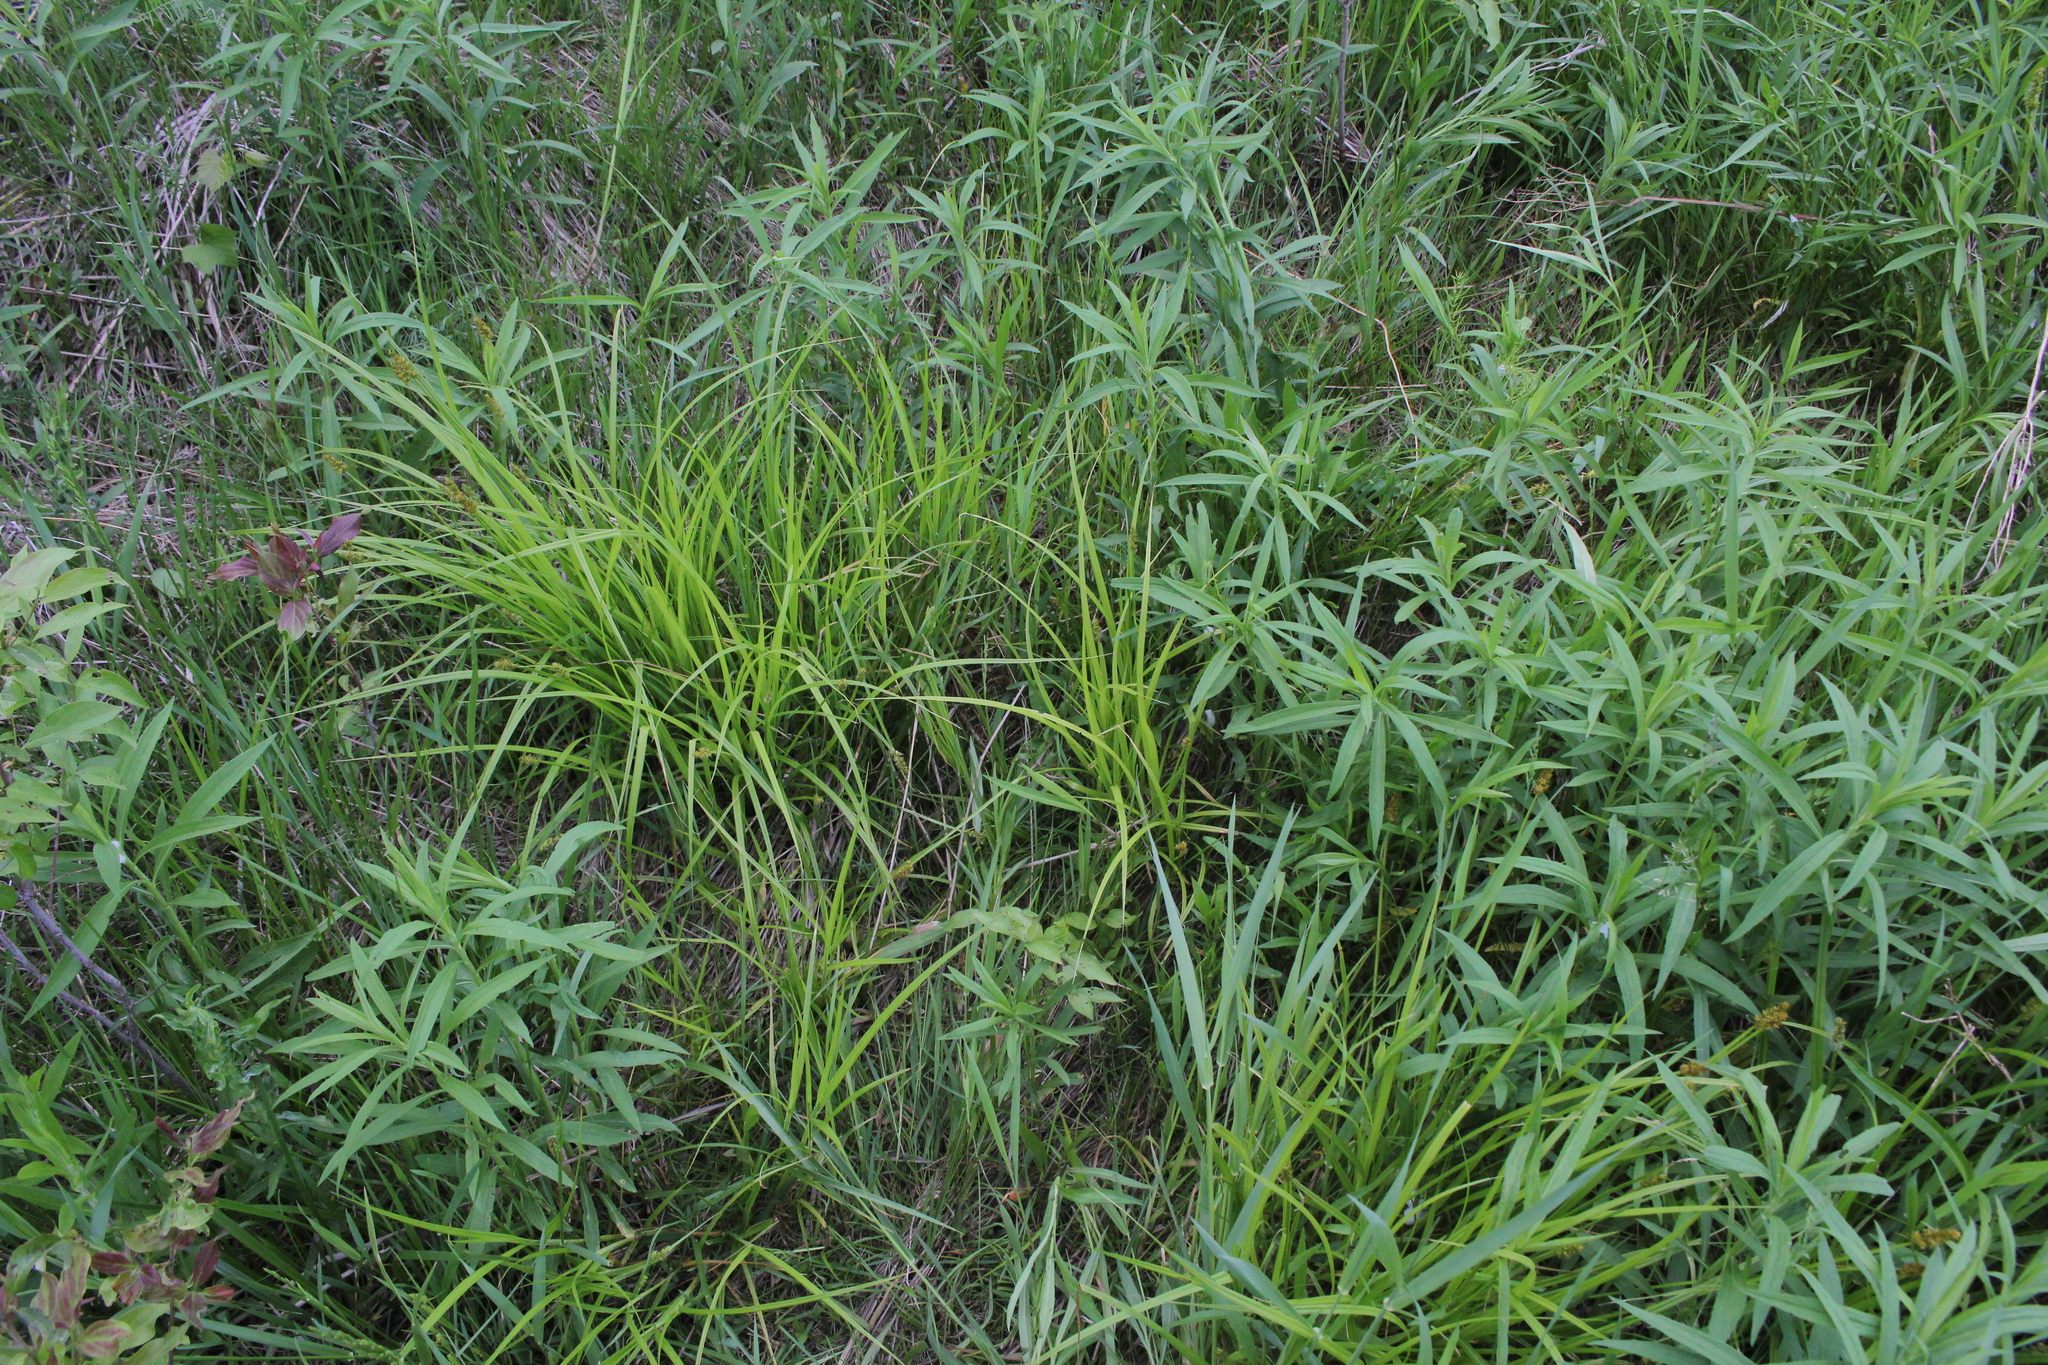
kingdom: Plantae
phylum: Tracheophyta
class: Liliopsida
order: Poales
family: Cyperaceae
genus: Carex
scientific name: Carex alopecoidea
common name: Brown-headed fox sedge
